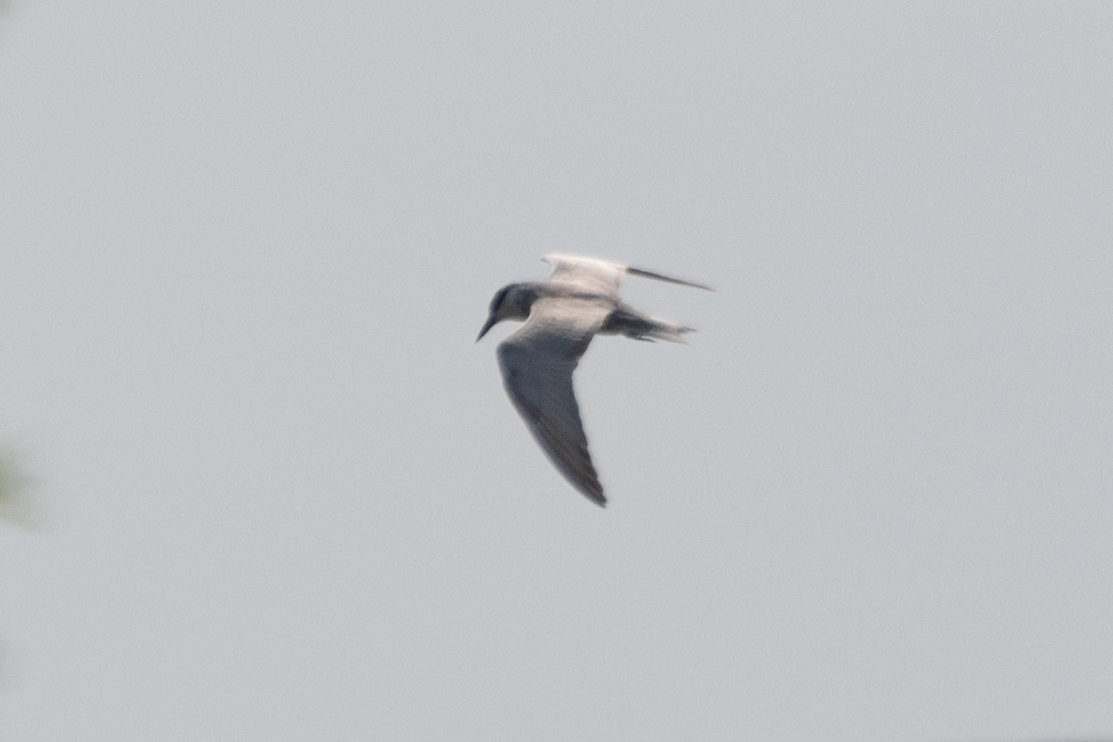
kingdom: Animalia
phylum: Chordata
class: Aves
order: Charadriiformes
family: Laridae
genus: Chlidonias
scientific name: Chlidonias hybrida
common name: Whiskered tern
